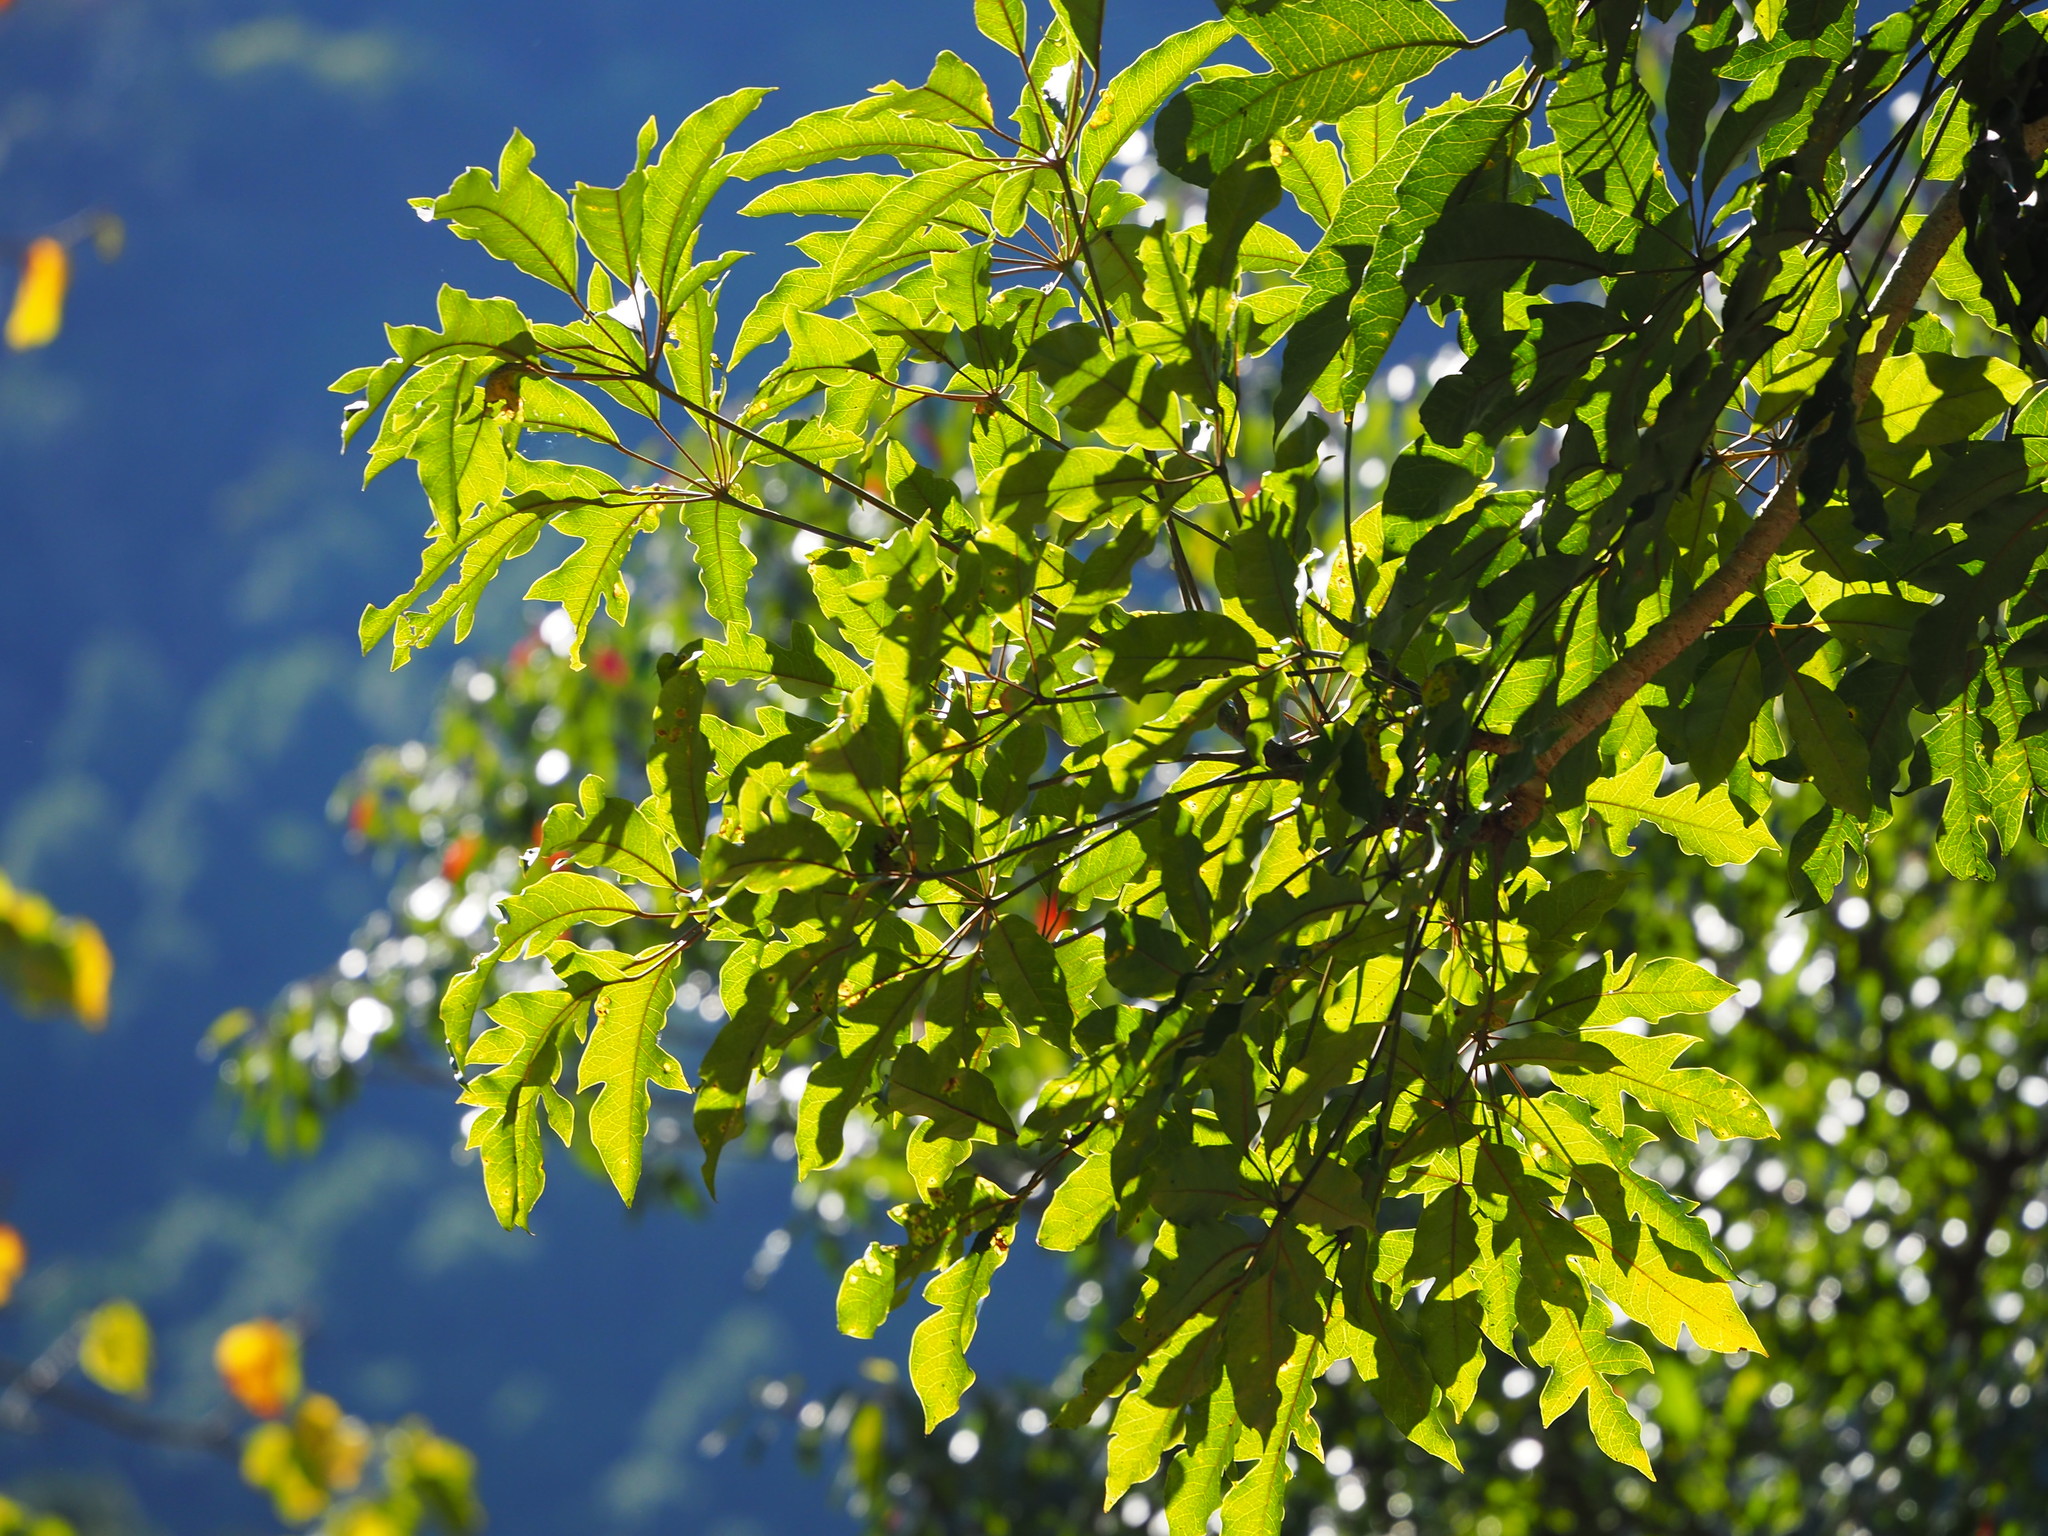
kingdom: Plantae
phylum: Tracheophyta
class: Magnoliopsida
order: Apiales
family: Araliaceae
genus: Heptapleurum
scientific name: Heptapleurum heptaphyllum
